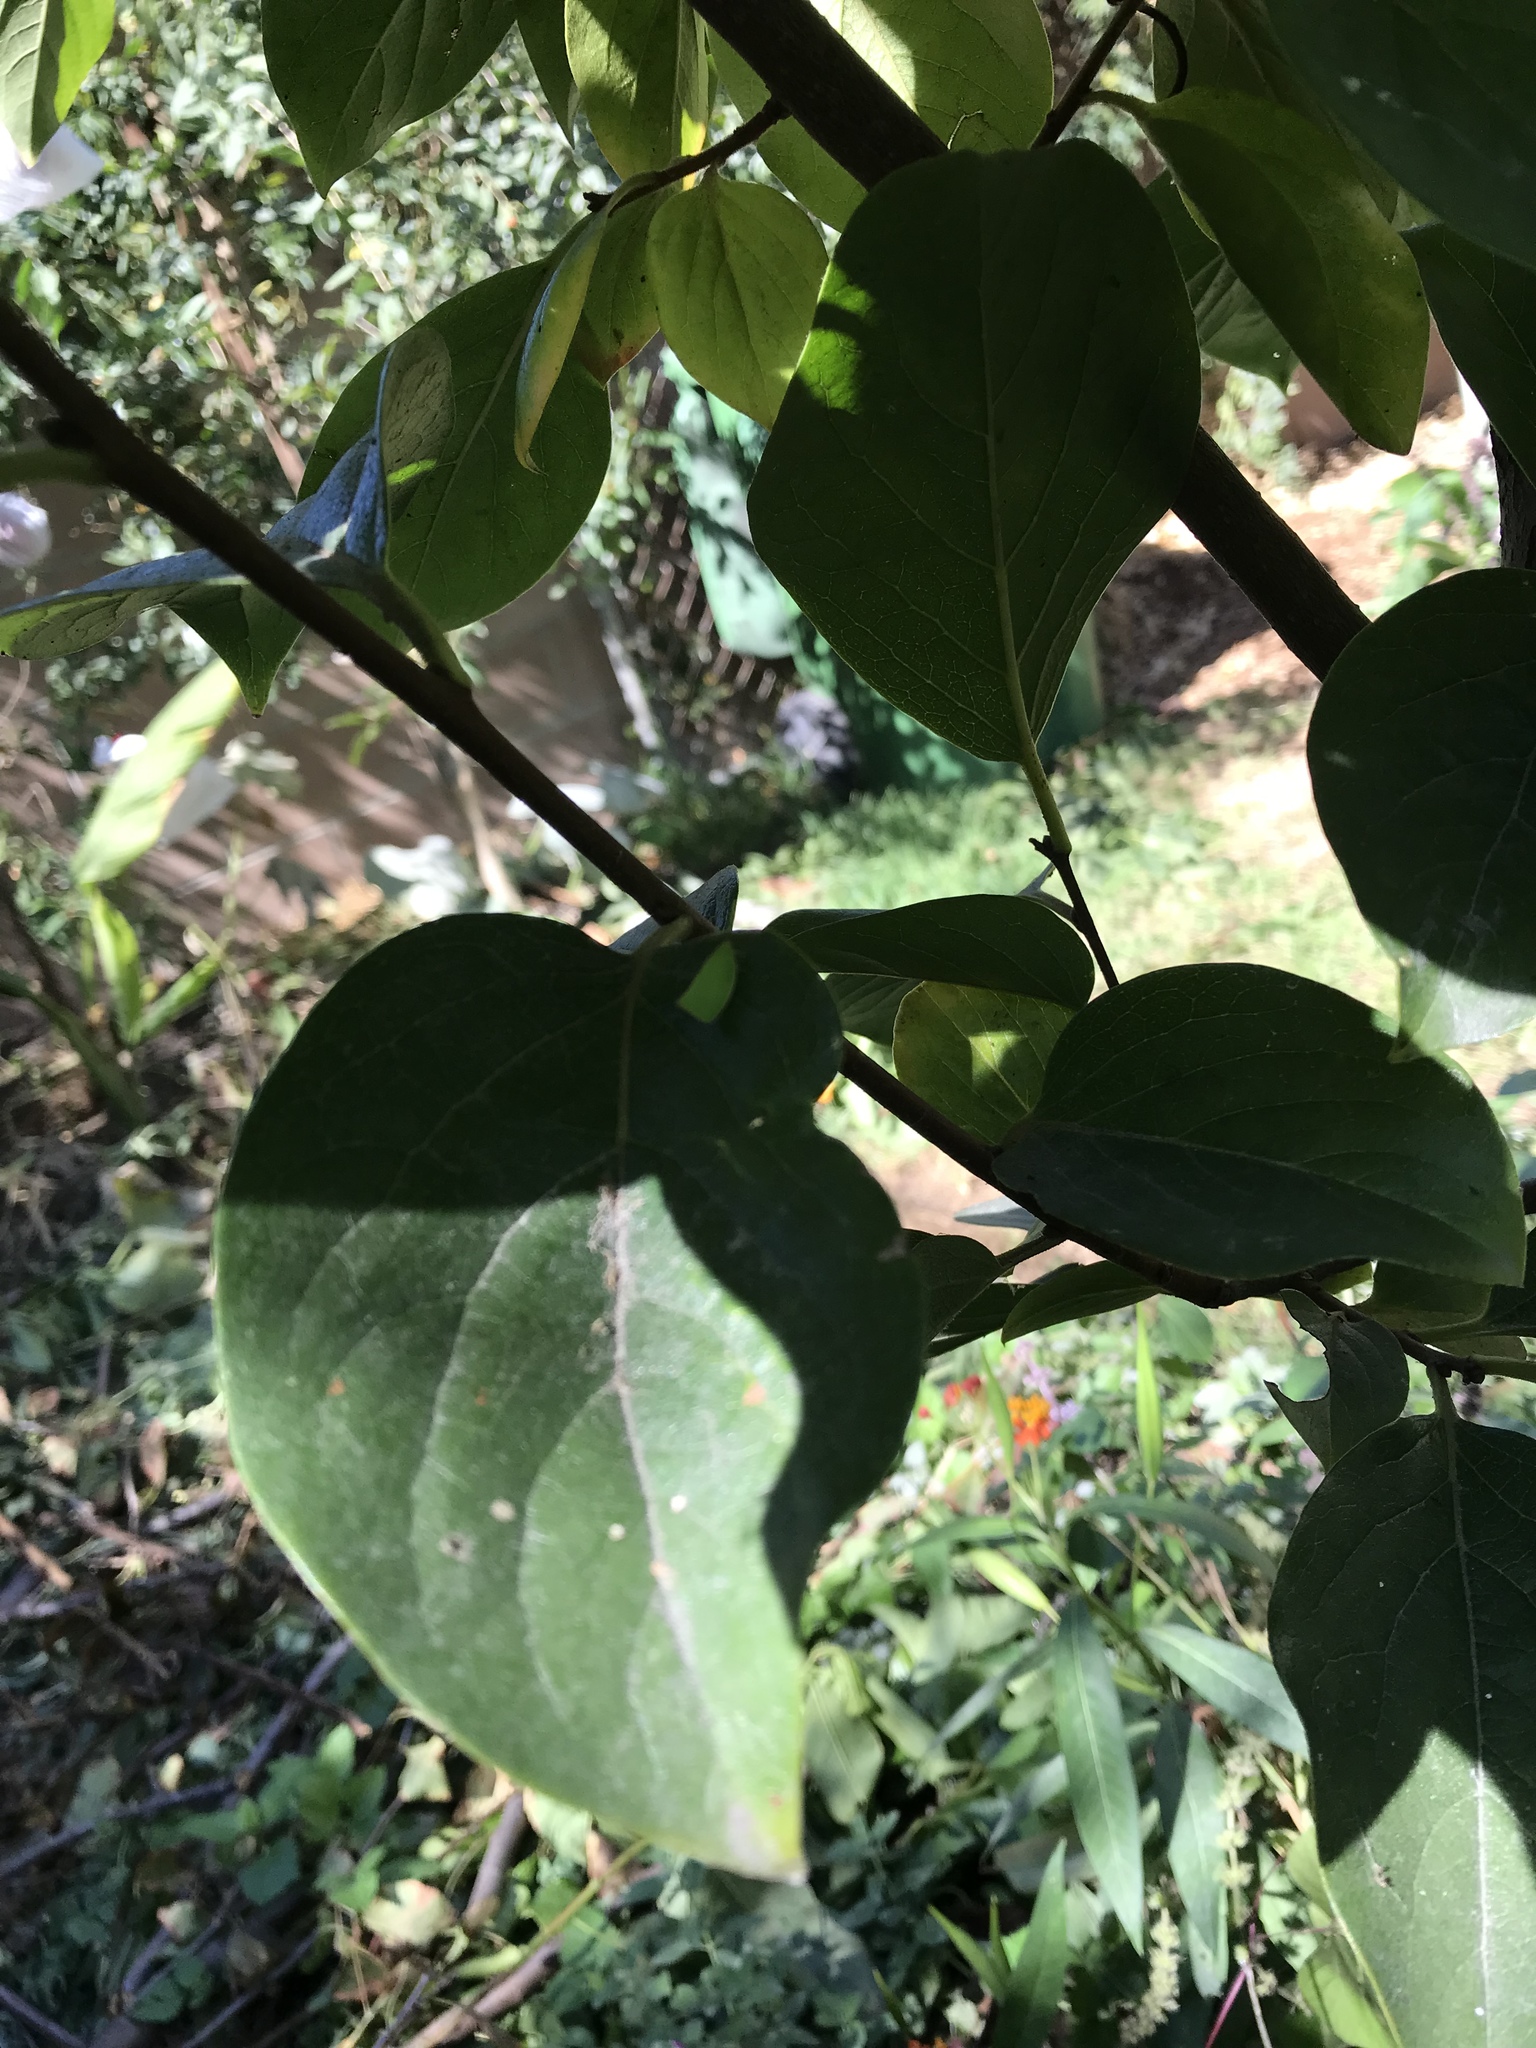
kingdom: Animalia
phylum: Arthropoda
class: Insecta
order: Hemiptera
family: Flatidae
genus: Siphanta
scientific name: Siphanta acuta
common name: Torpedo bug
